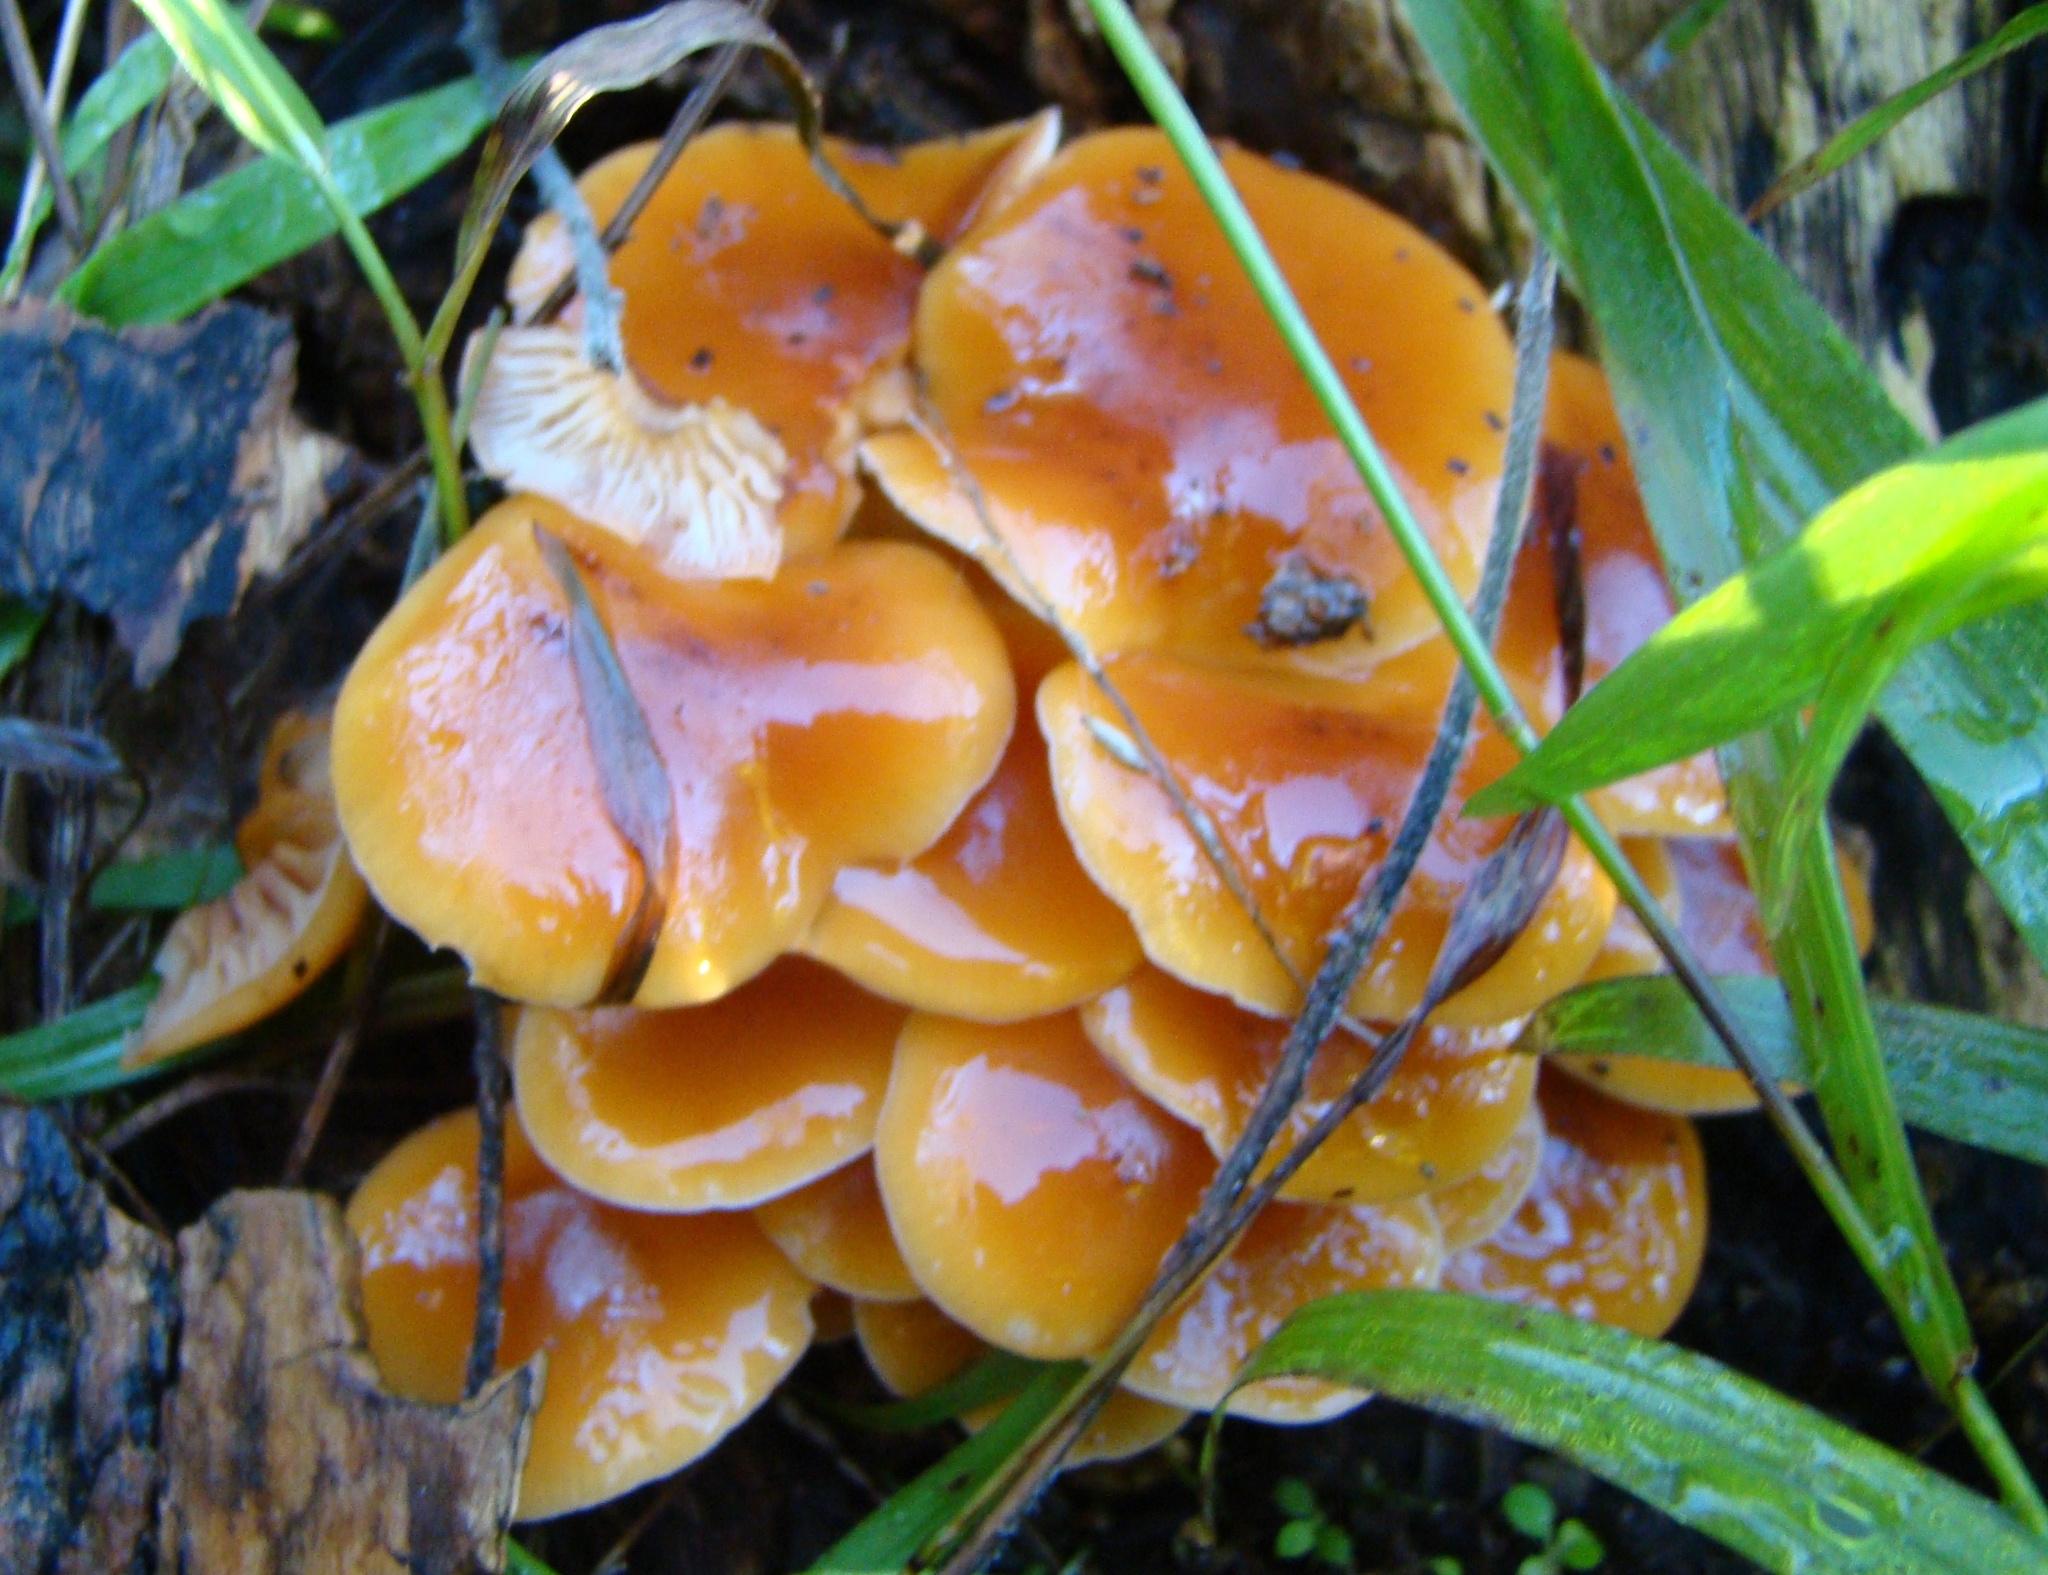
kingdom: Fungi
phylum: Basidiomycota
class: Agaricomycetes
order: Agaricales
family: Physalacriaceae
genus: Flammulina
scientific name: Flammulina velutipes
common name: Velvet shank
